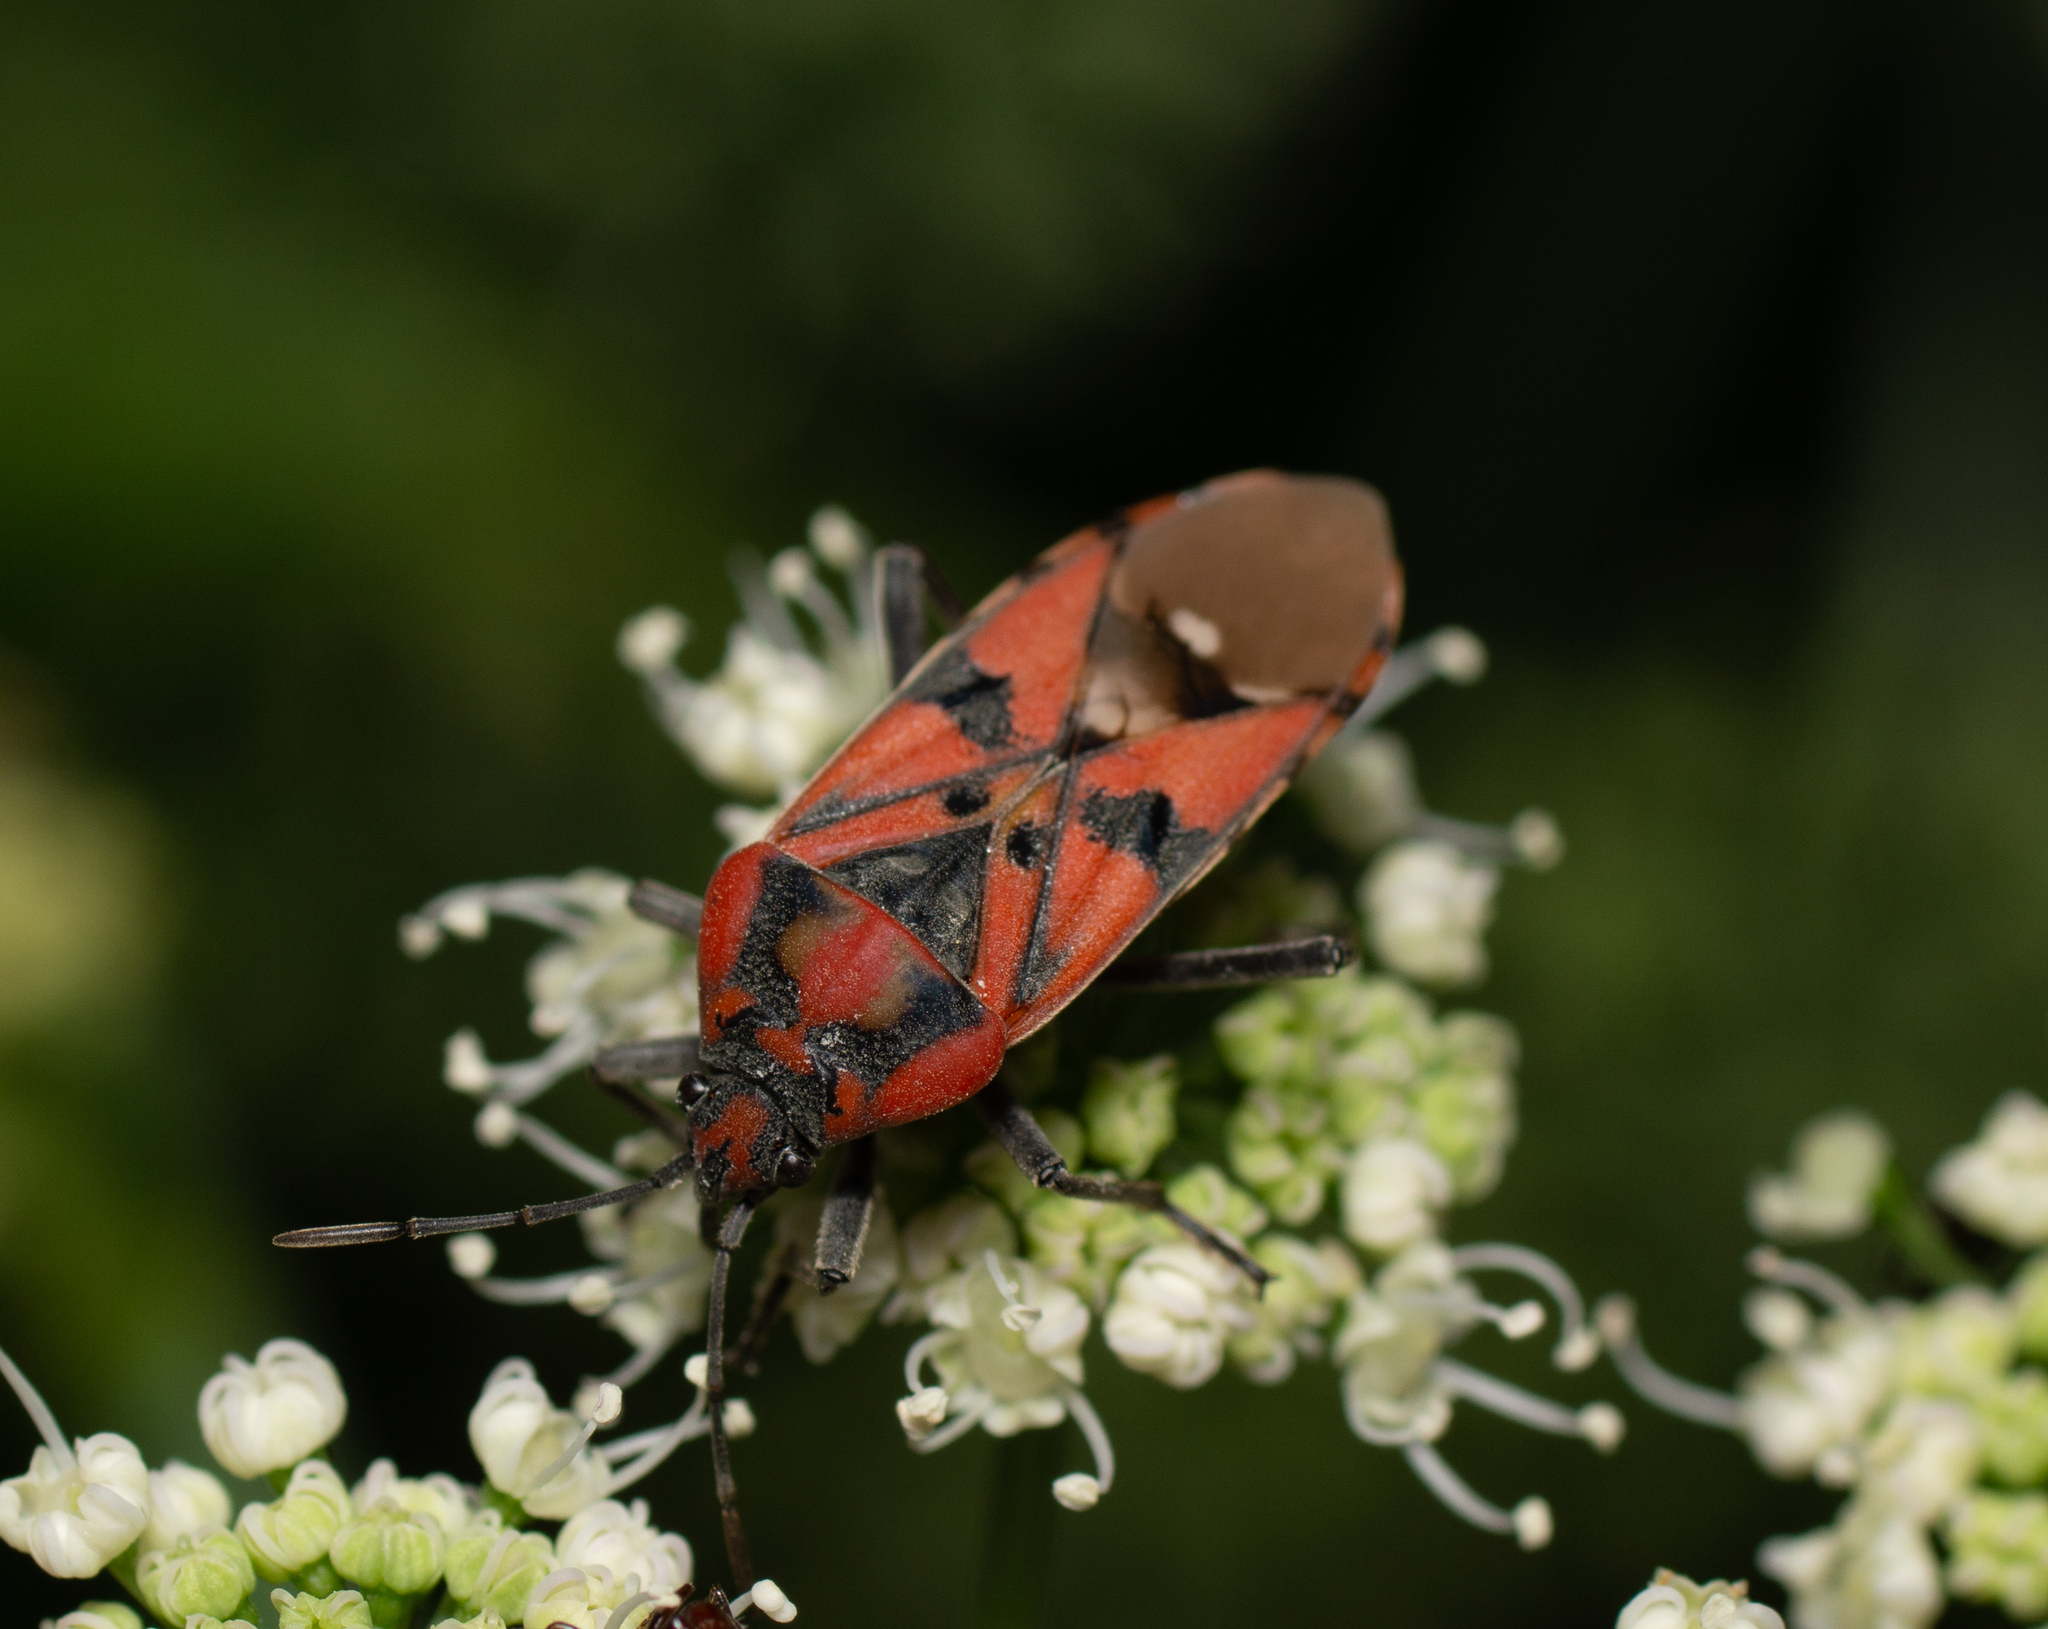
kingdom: Animalia
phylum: Arthropoda
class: Insecta
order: Hemiptera
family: Lygaeidae
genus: Spilostethus
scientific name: Spilostethus pandurus
